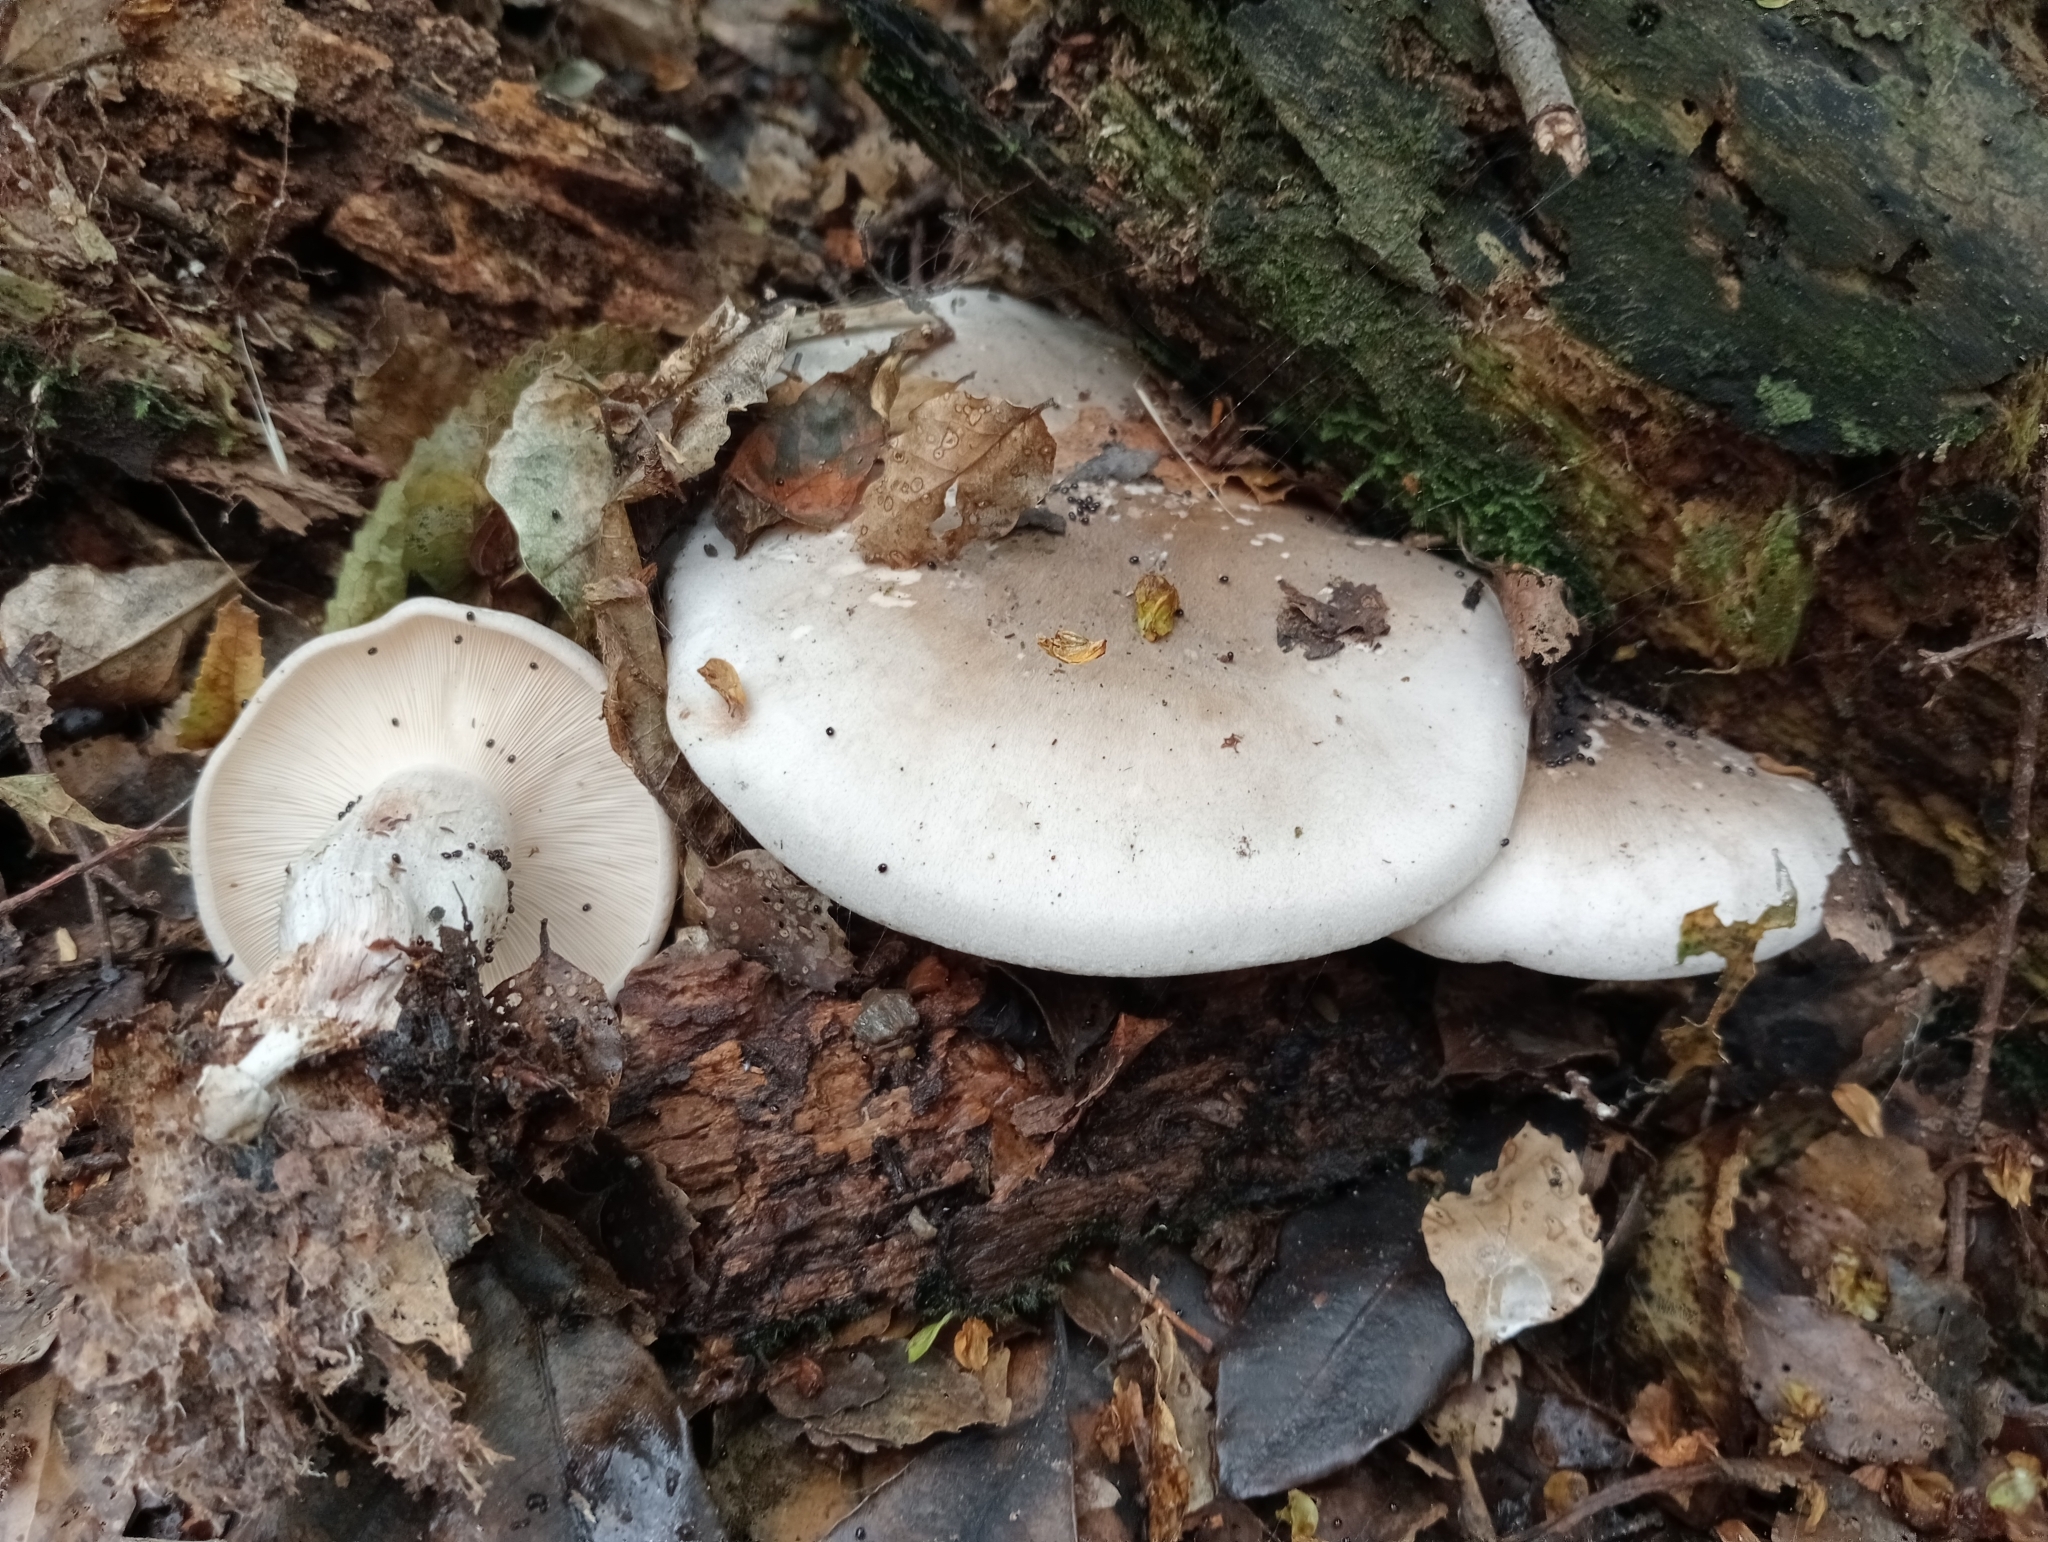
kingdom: Fungi
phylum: Basidiomycota
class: Agaricomycetes
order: Agaricales
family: Tricholomataceae
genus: Clitocybe
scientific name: Clitocybe nebularis
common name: Clouded agaric
